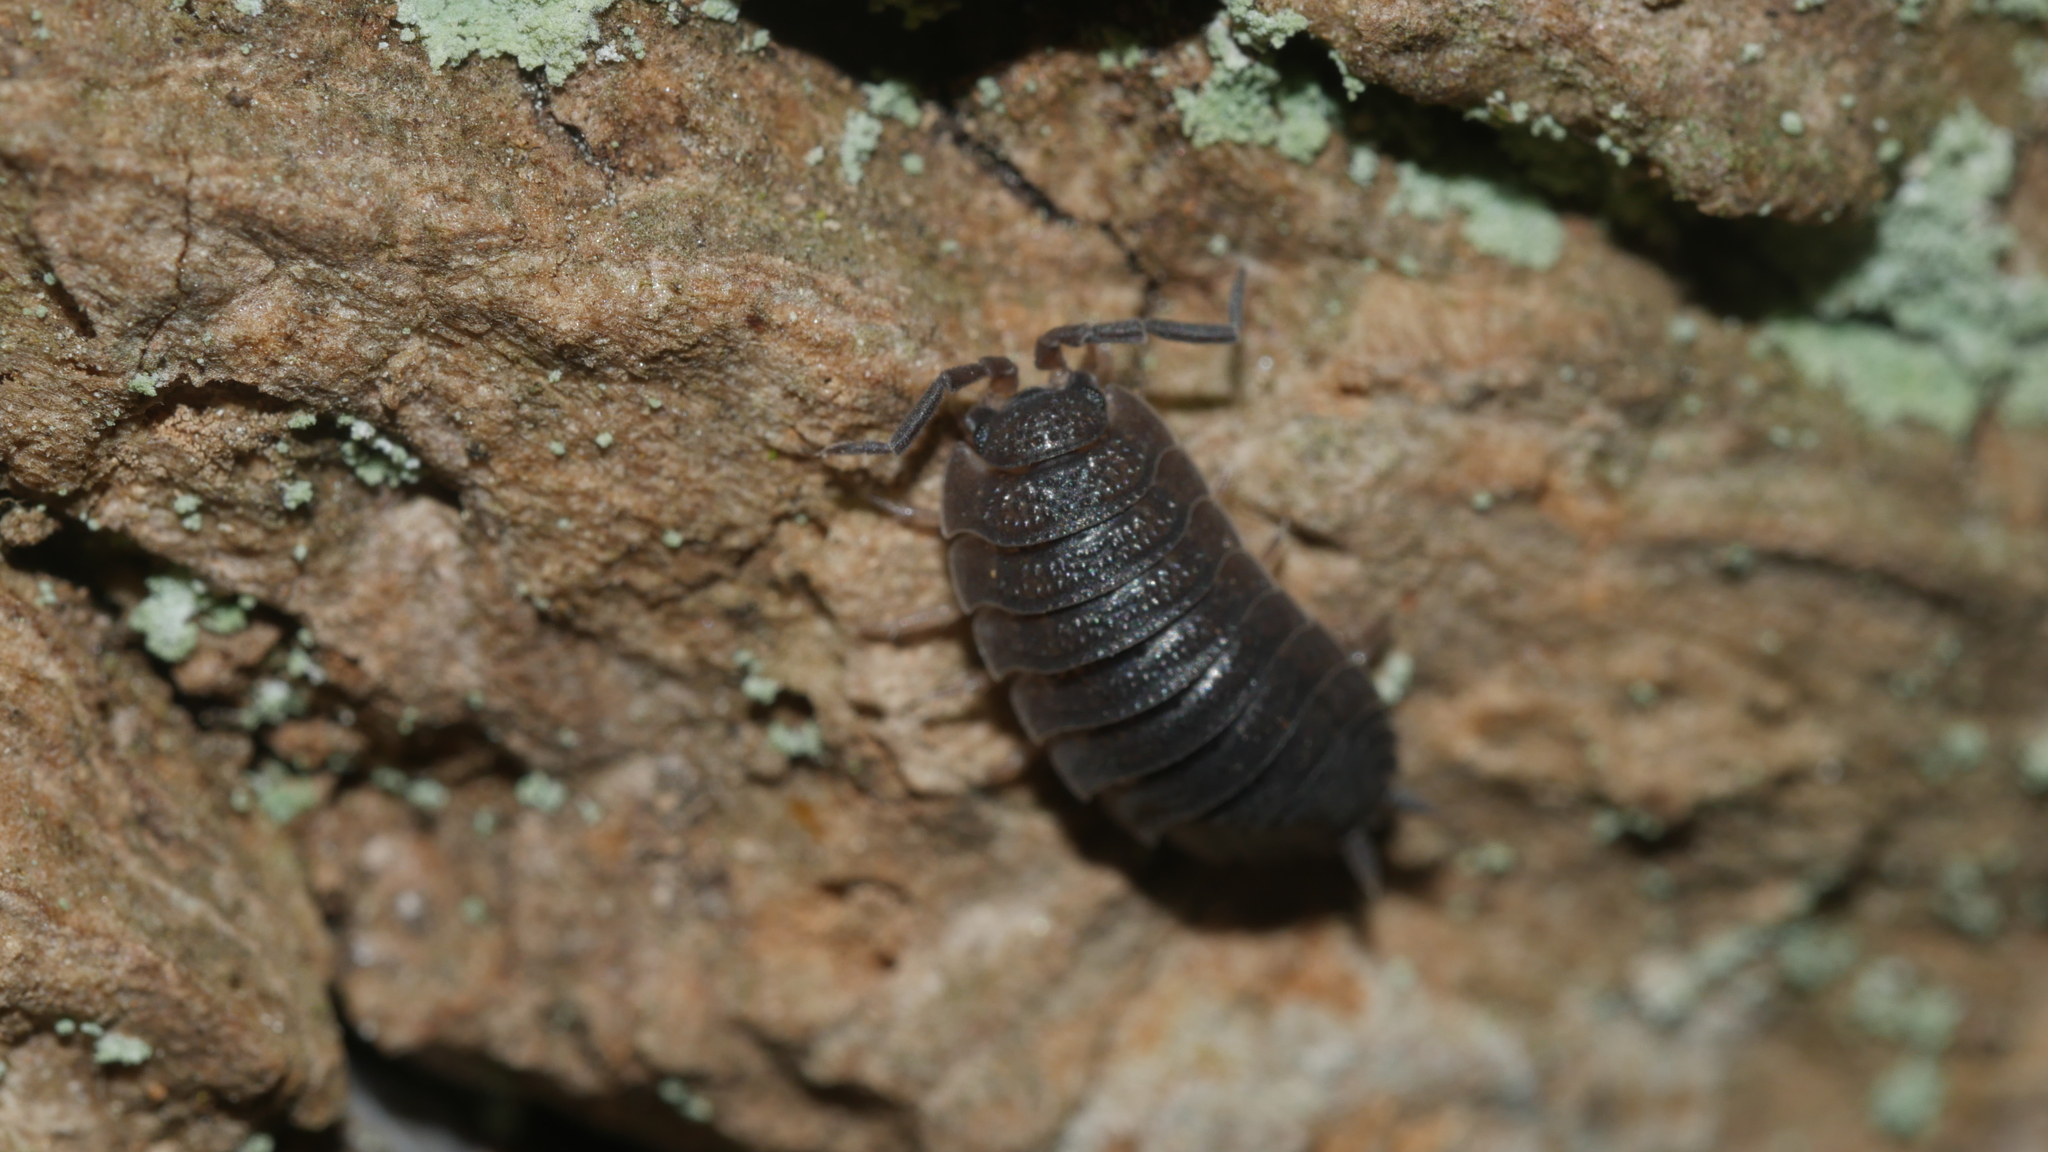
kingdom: Animalia
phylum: Arthropoda
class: Malacostraca
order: Isopoda
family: Porcellionidae
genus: Porcellio
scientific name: Porcellio scaber
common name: Common rough woodlouse
